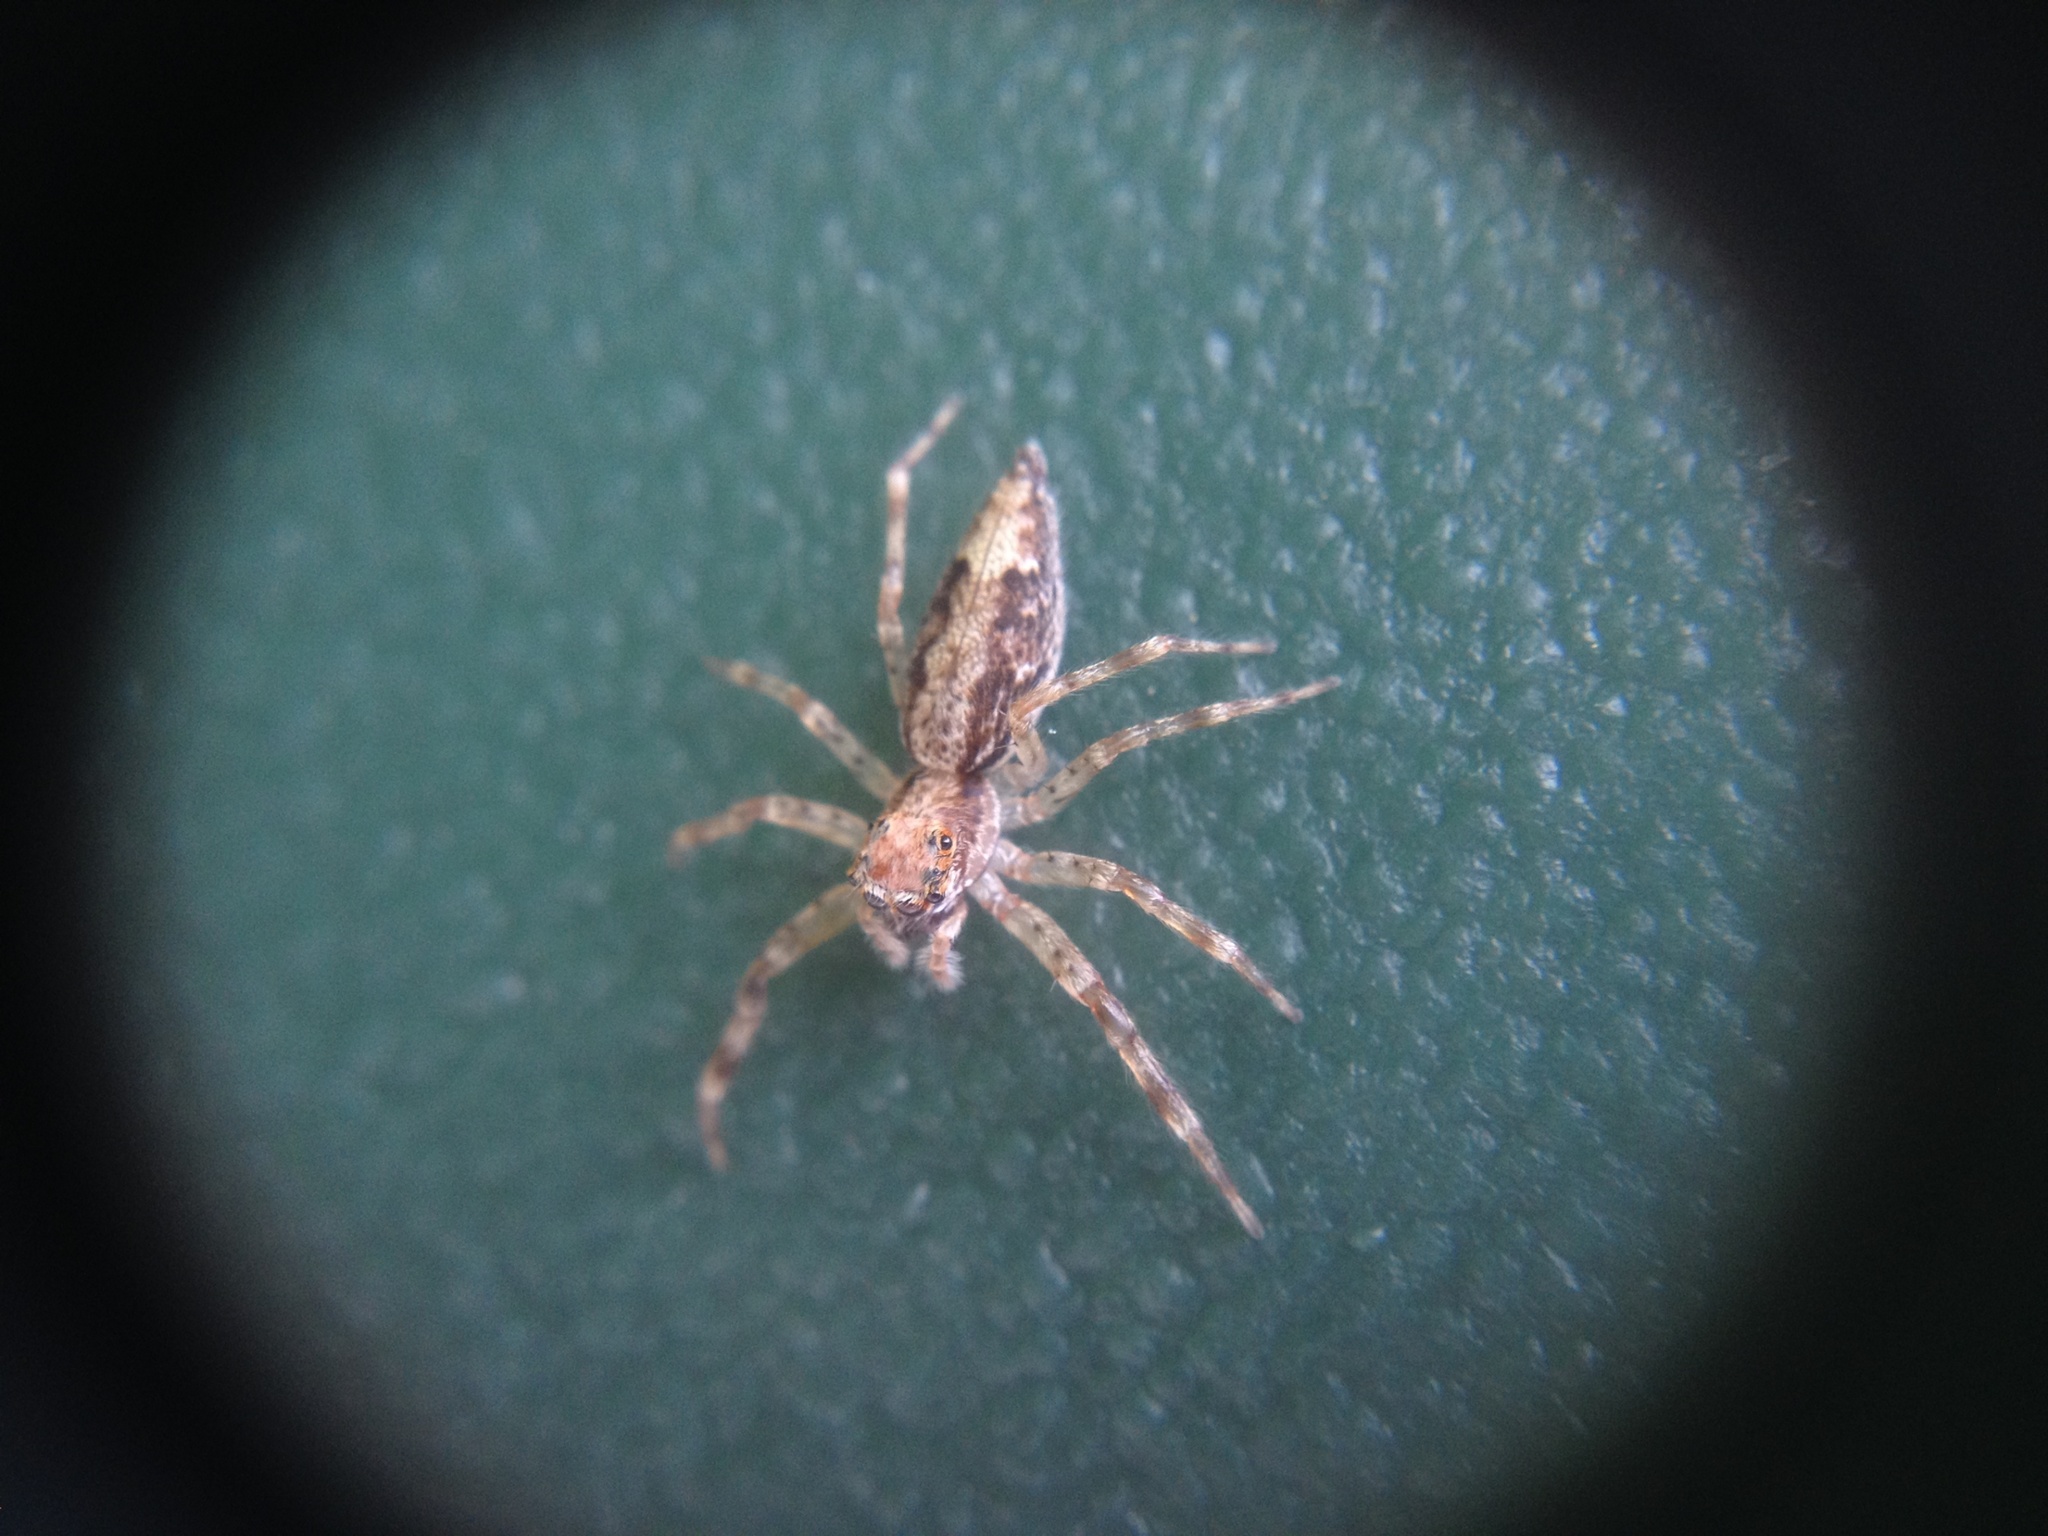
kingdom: Animalia
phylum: Arthropoda
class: Arachnida
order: Araneae
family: Salticidae
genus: Helpis
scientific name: Helpis minitabunda
